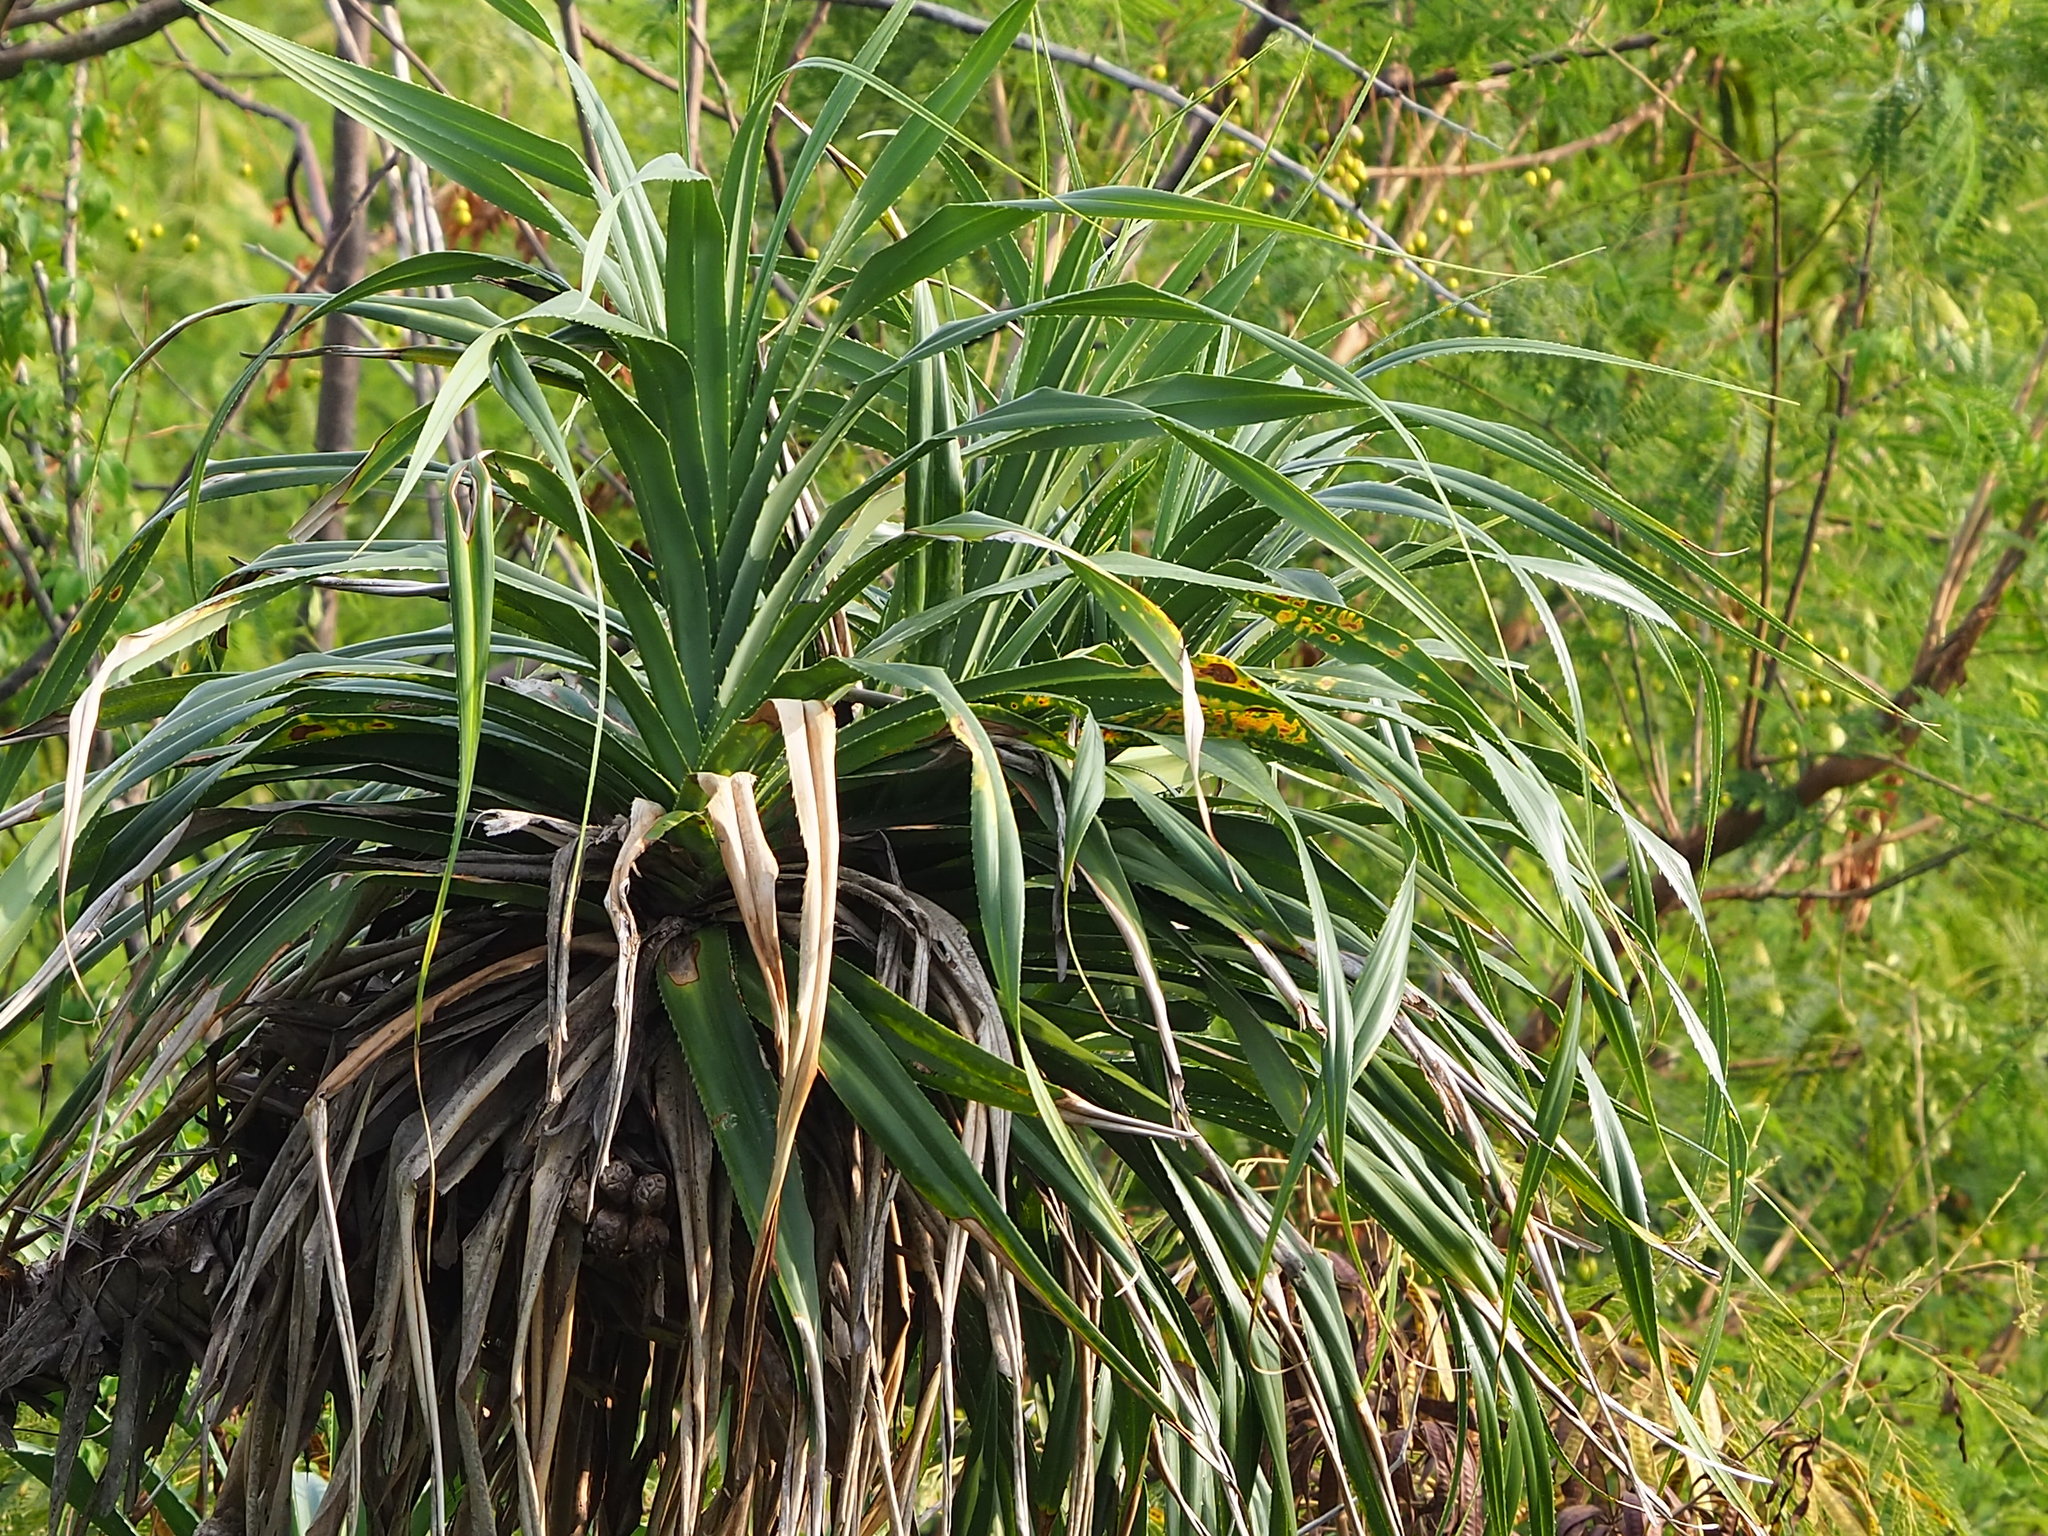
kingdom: Plantae
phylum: Tracheophyta
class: Liliopsida
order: Pandanales
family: Pandanaceae
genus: Pandanus
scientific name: Pandanus odorifer
